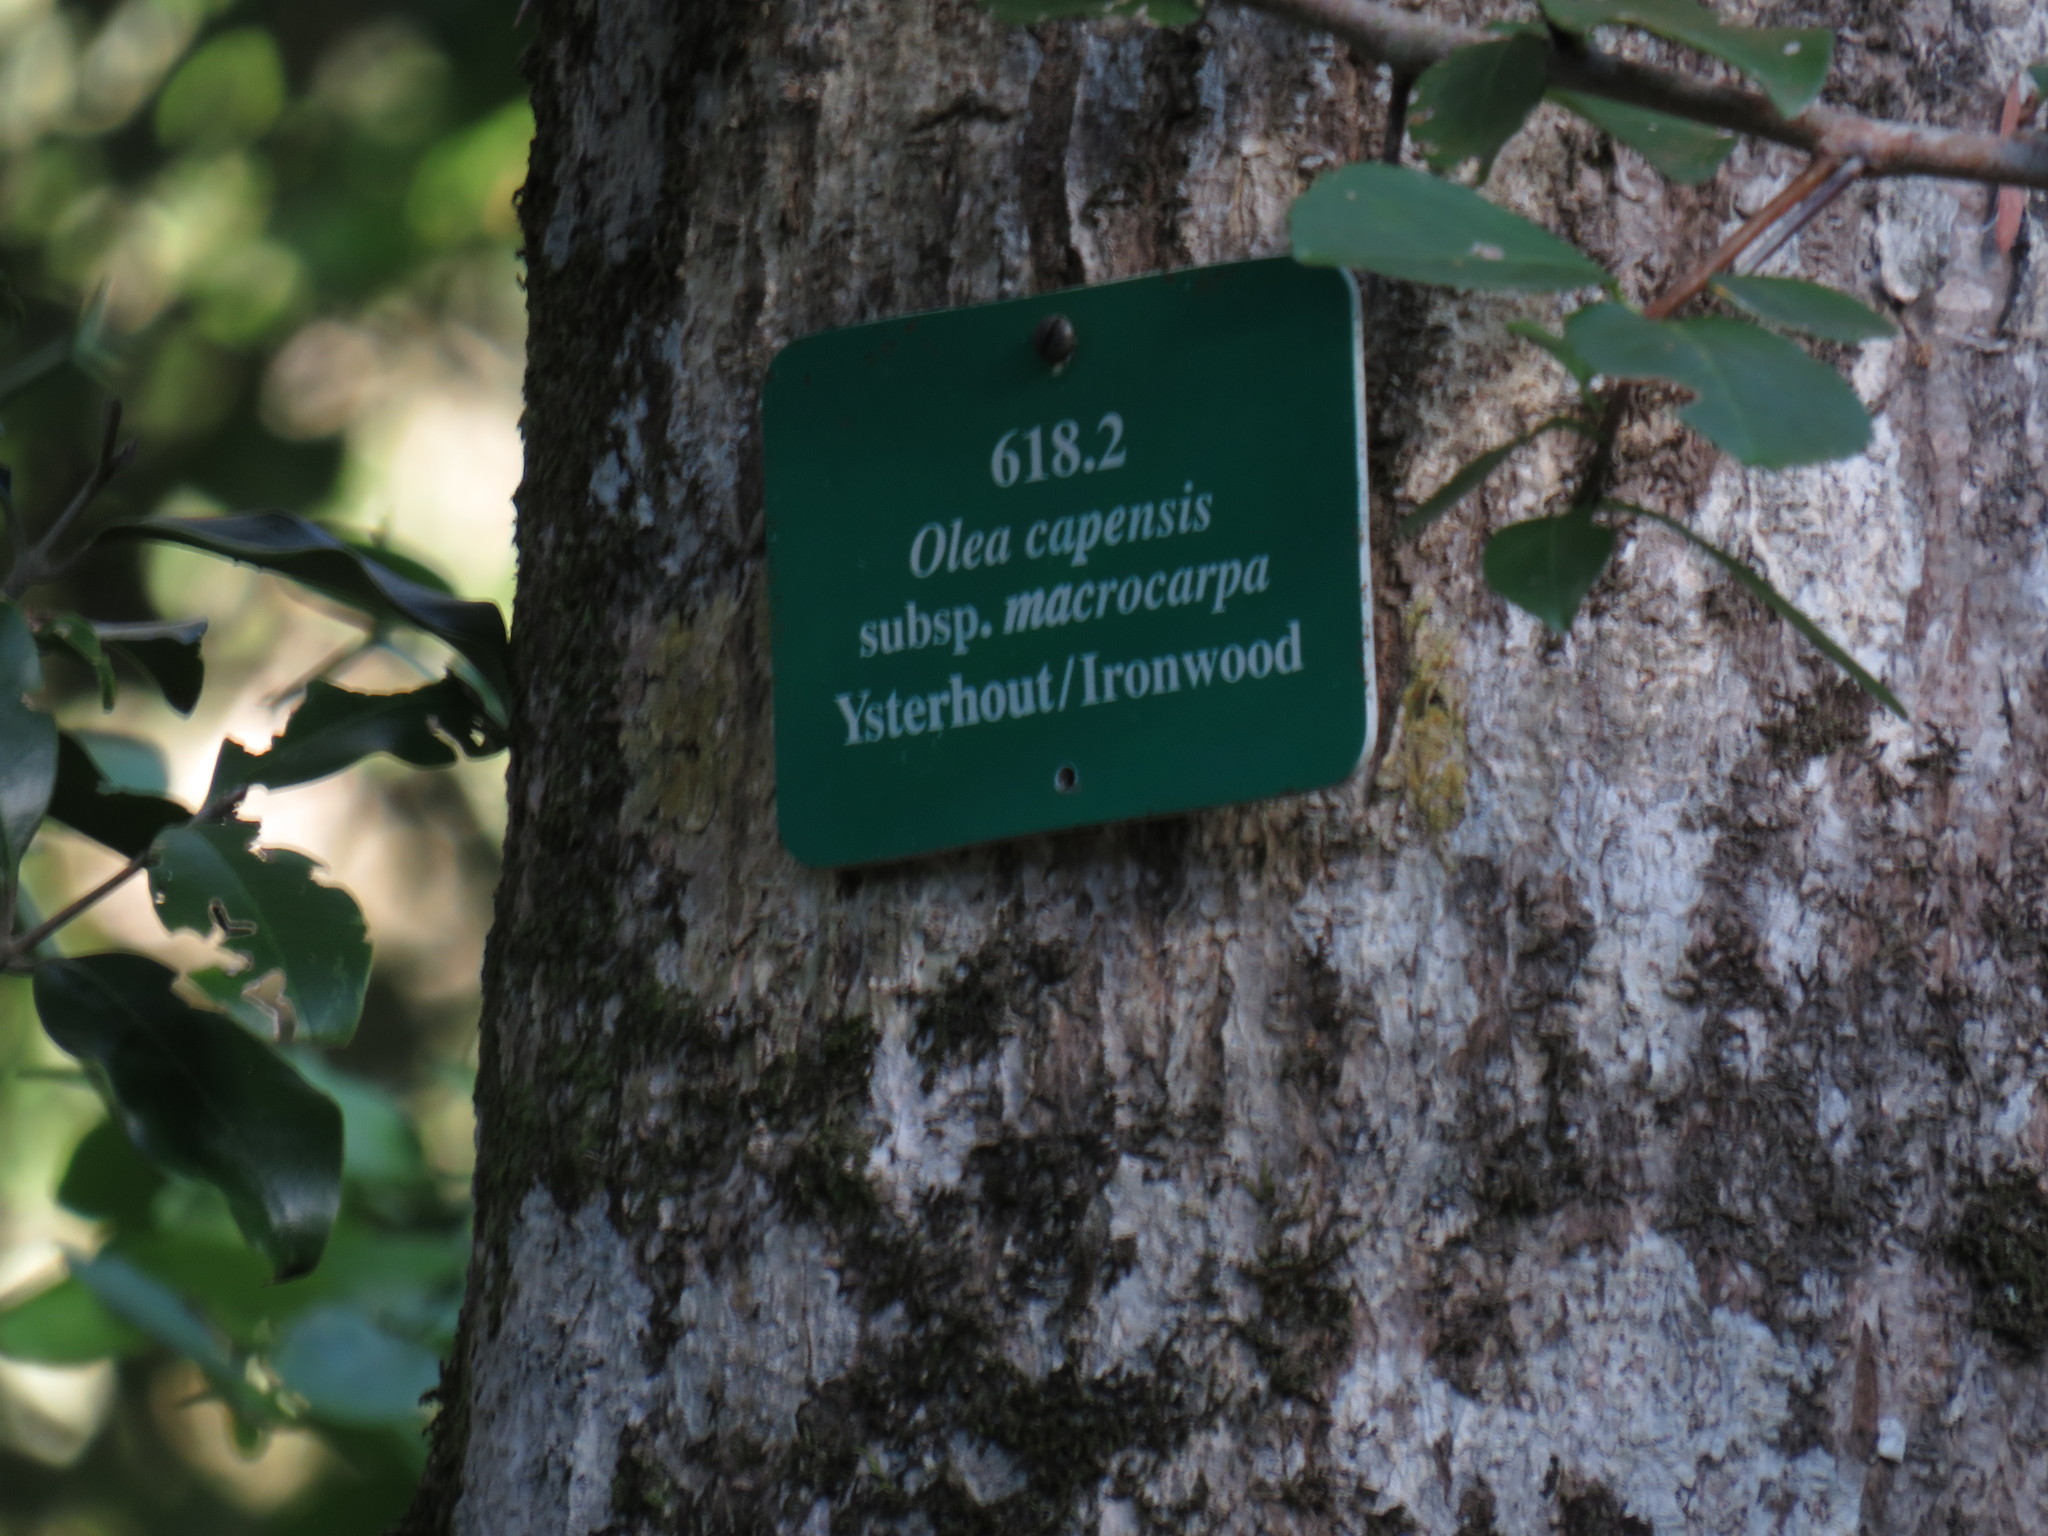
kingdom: Plantae
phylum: Tracheophyta
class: Magnoliopsida
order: Lamiales
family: Oleaceae
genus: Olea
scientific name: Olea capensis
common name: Black ironwood
